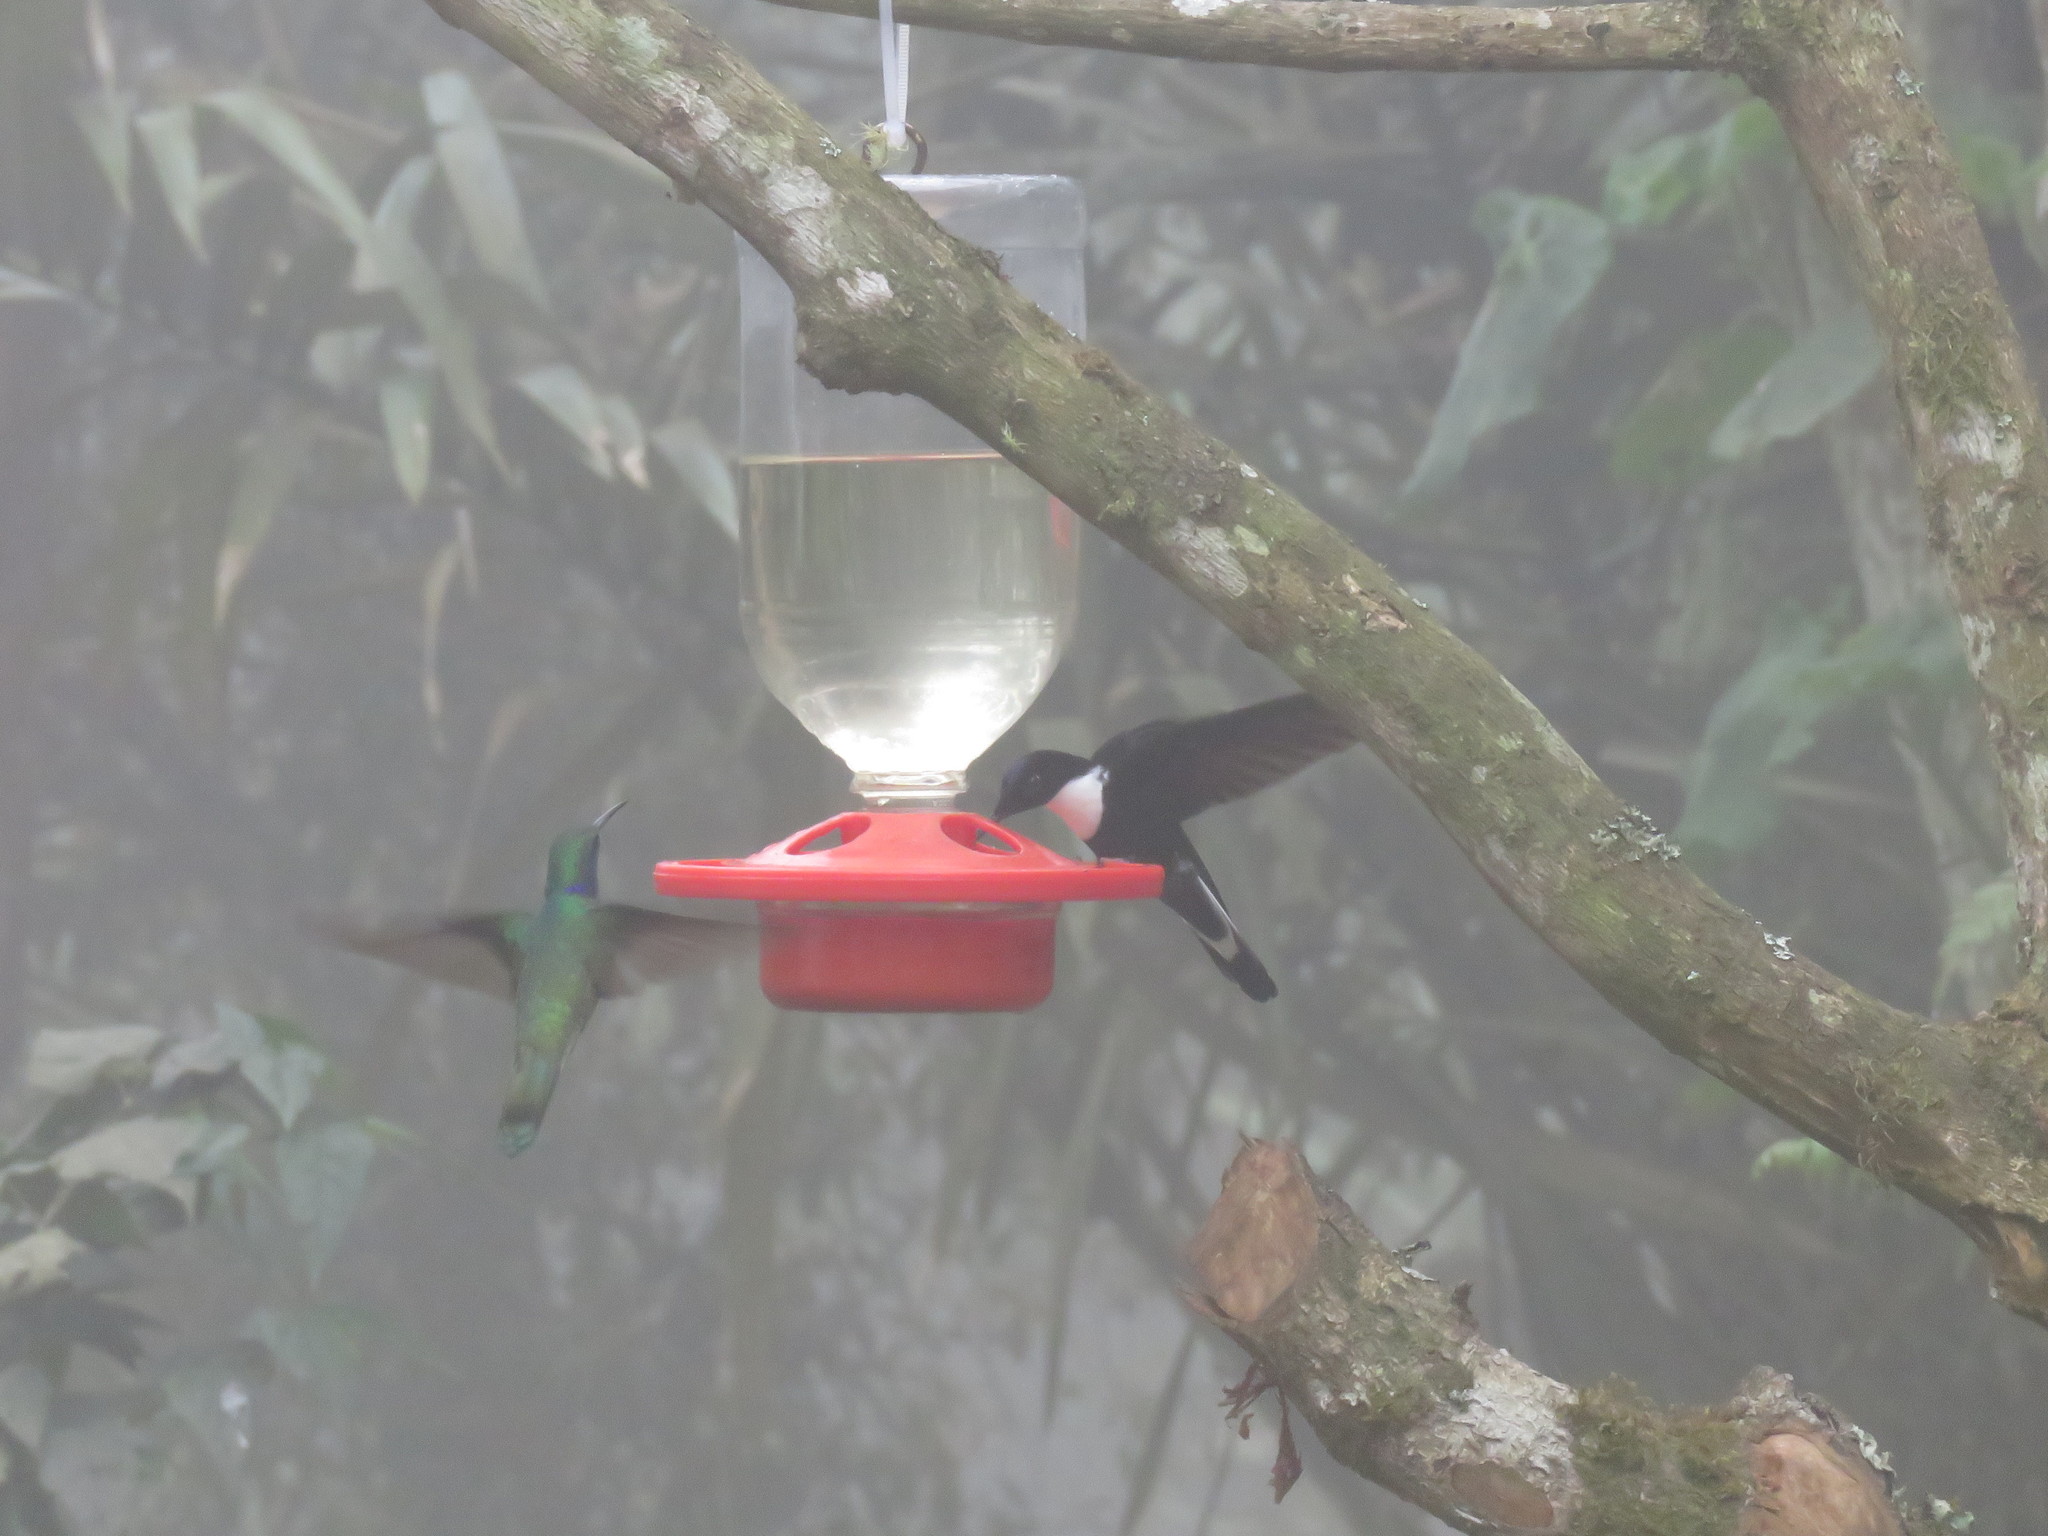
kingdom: Animalia
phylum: Chordata
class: Aves
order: Apodiformes
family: Trochilidae
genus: Coeligena
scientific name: Coeligena torquata
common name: Collared inca
